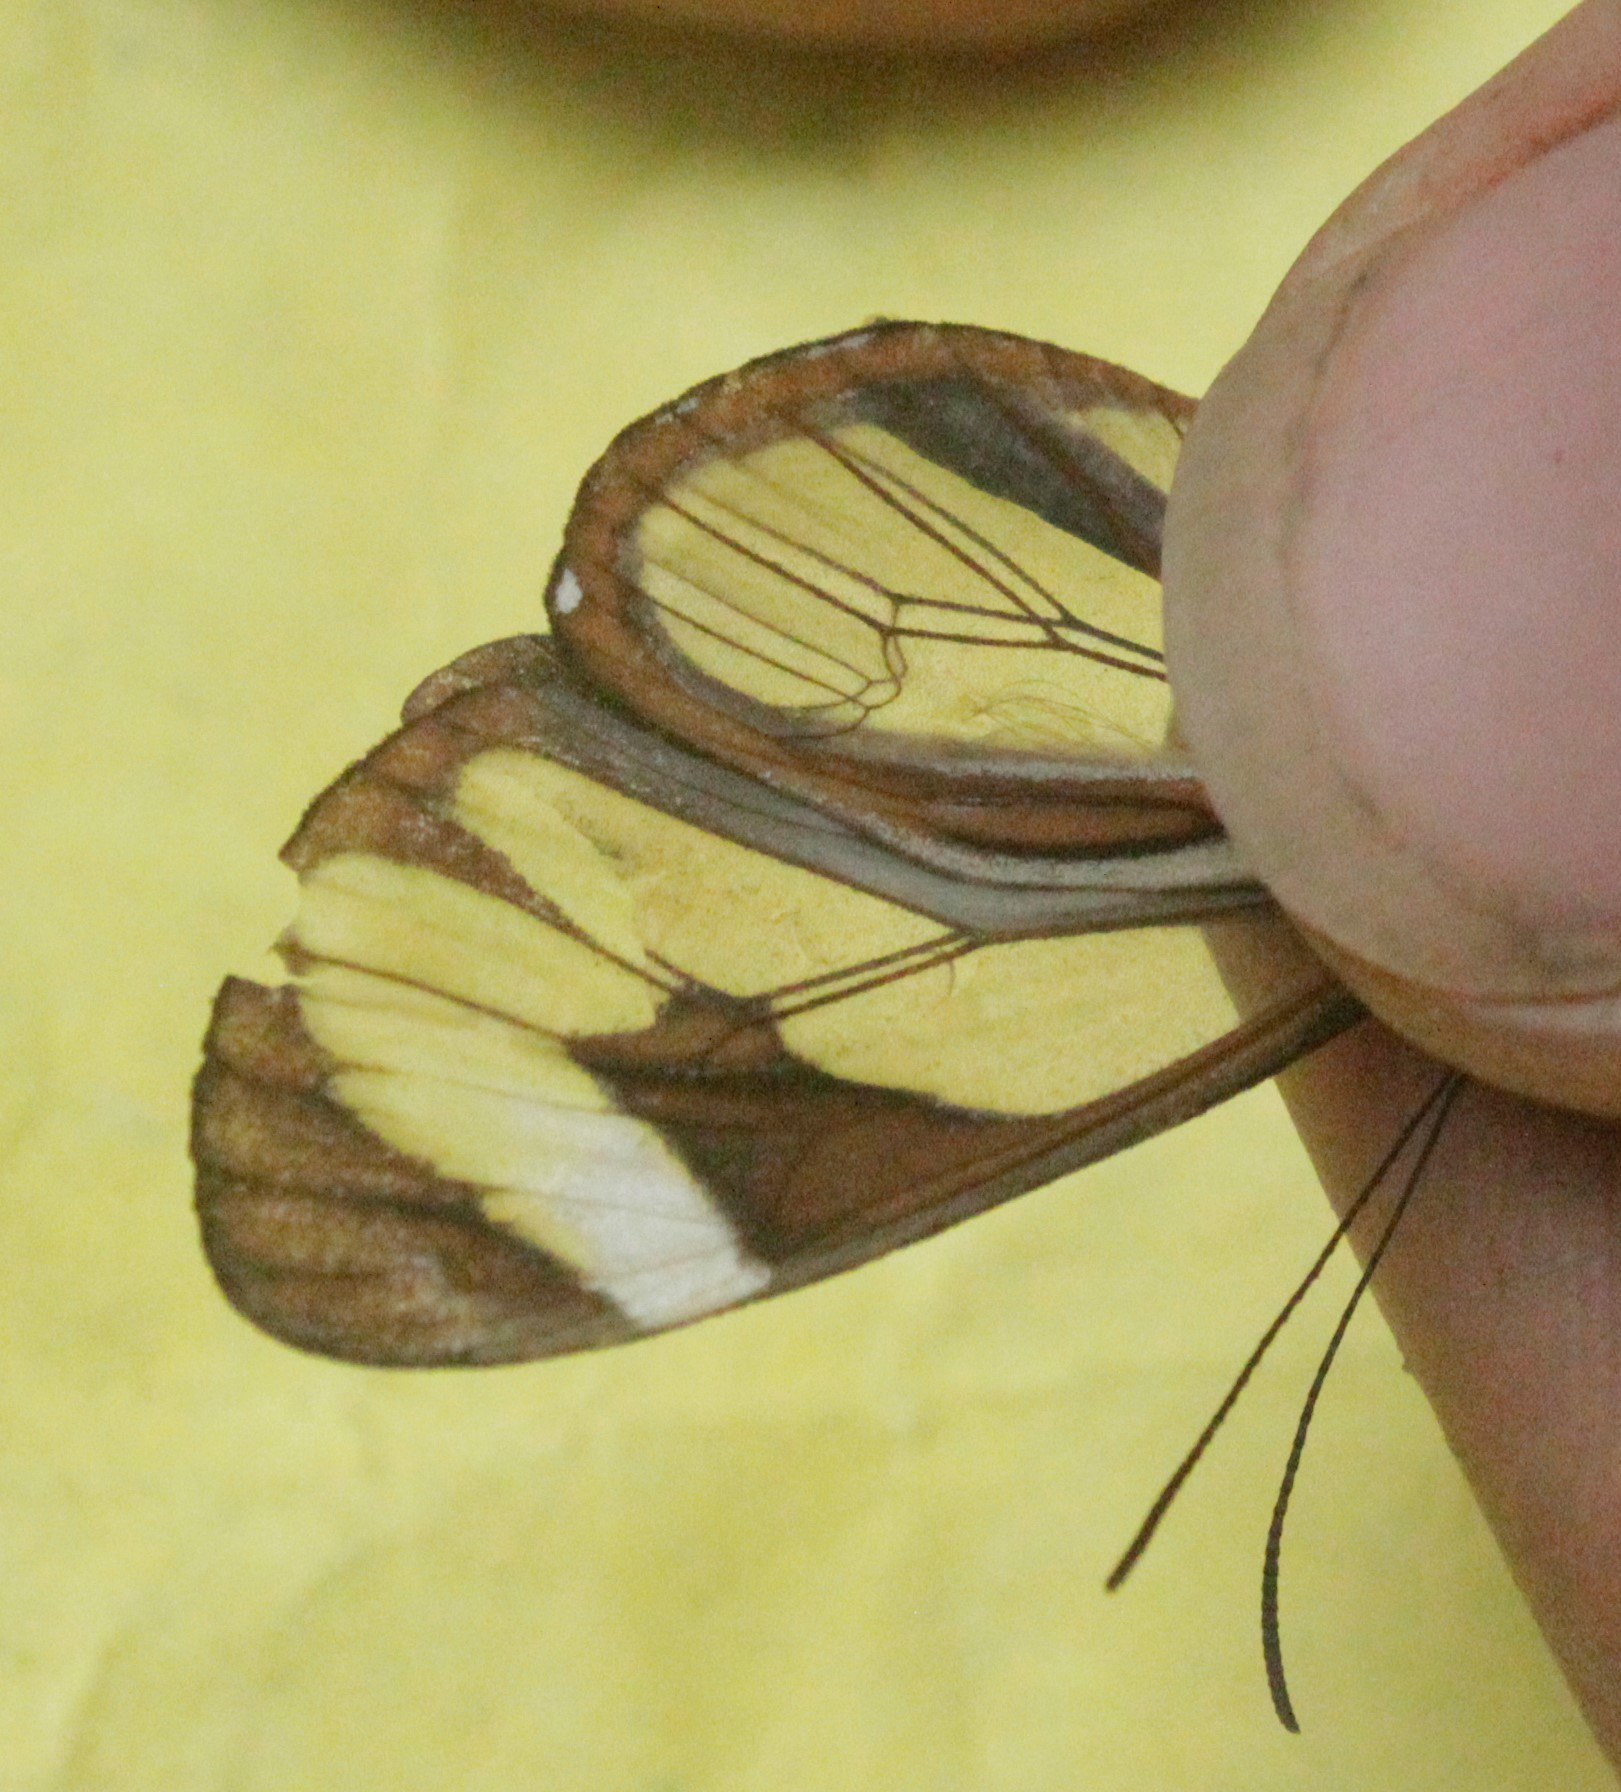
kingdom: Animalia
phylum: Arthropoda
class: Insecta
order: Lepidoptera
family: Nymphalidae
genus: Ithomia
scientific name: Ithomia patilla
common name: Patilla clearwing
